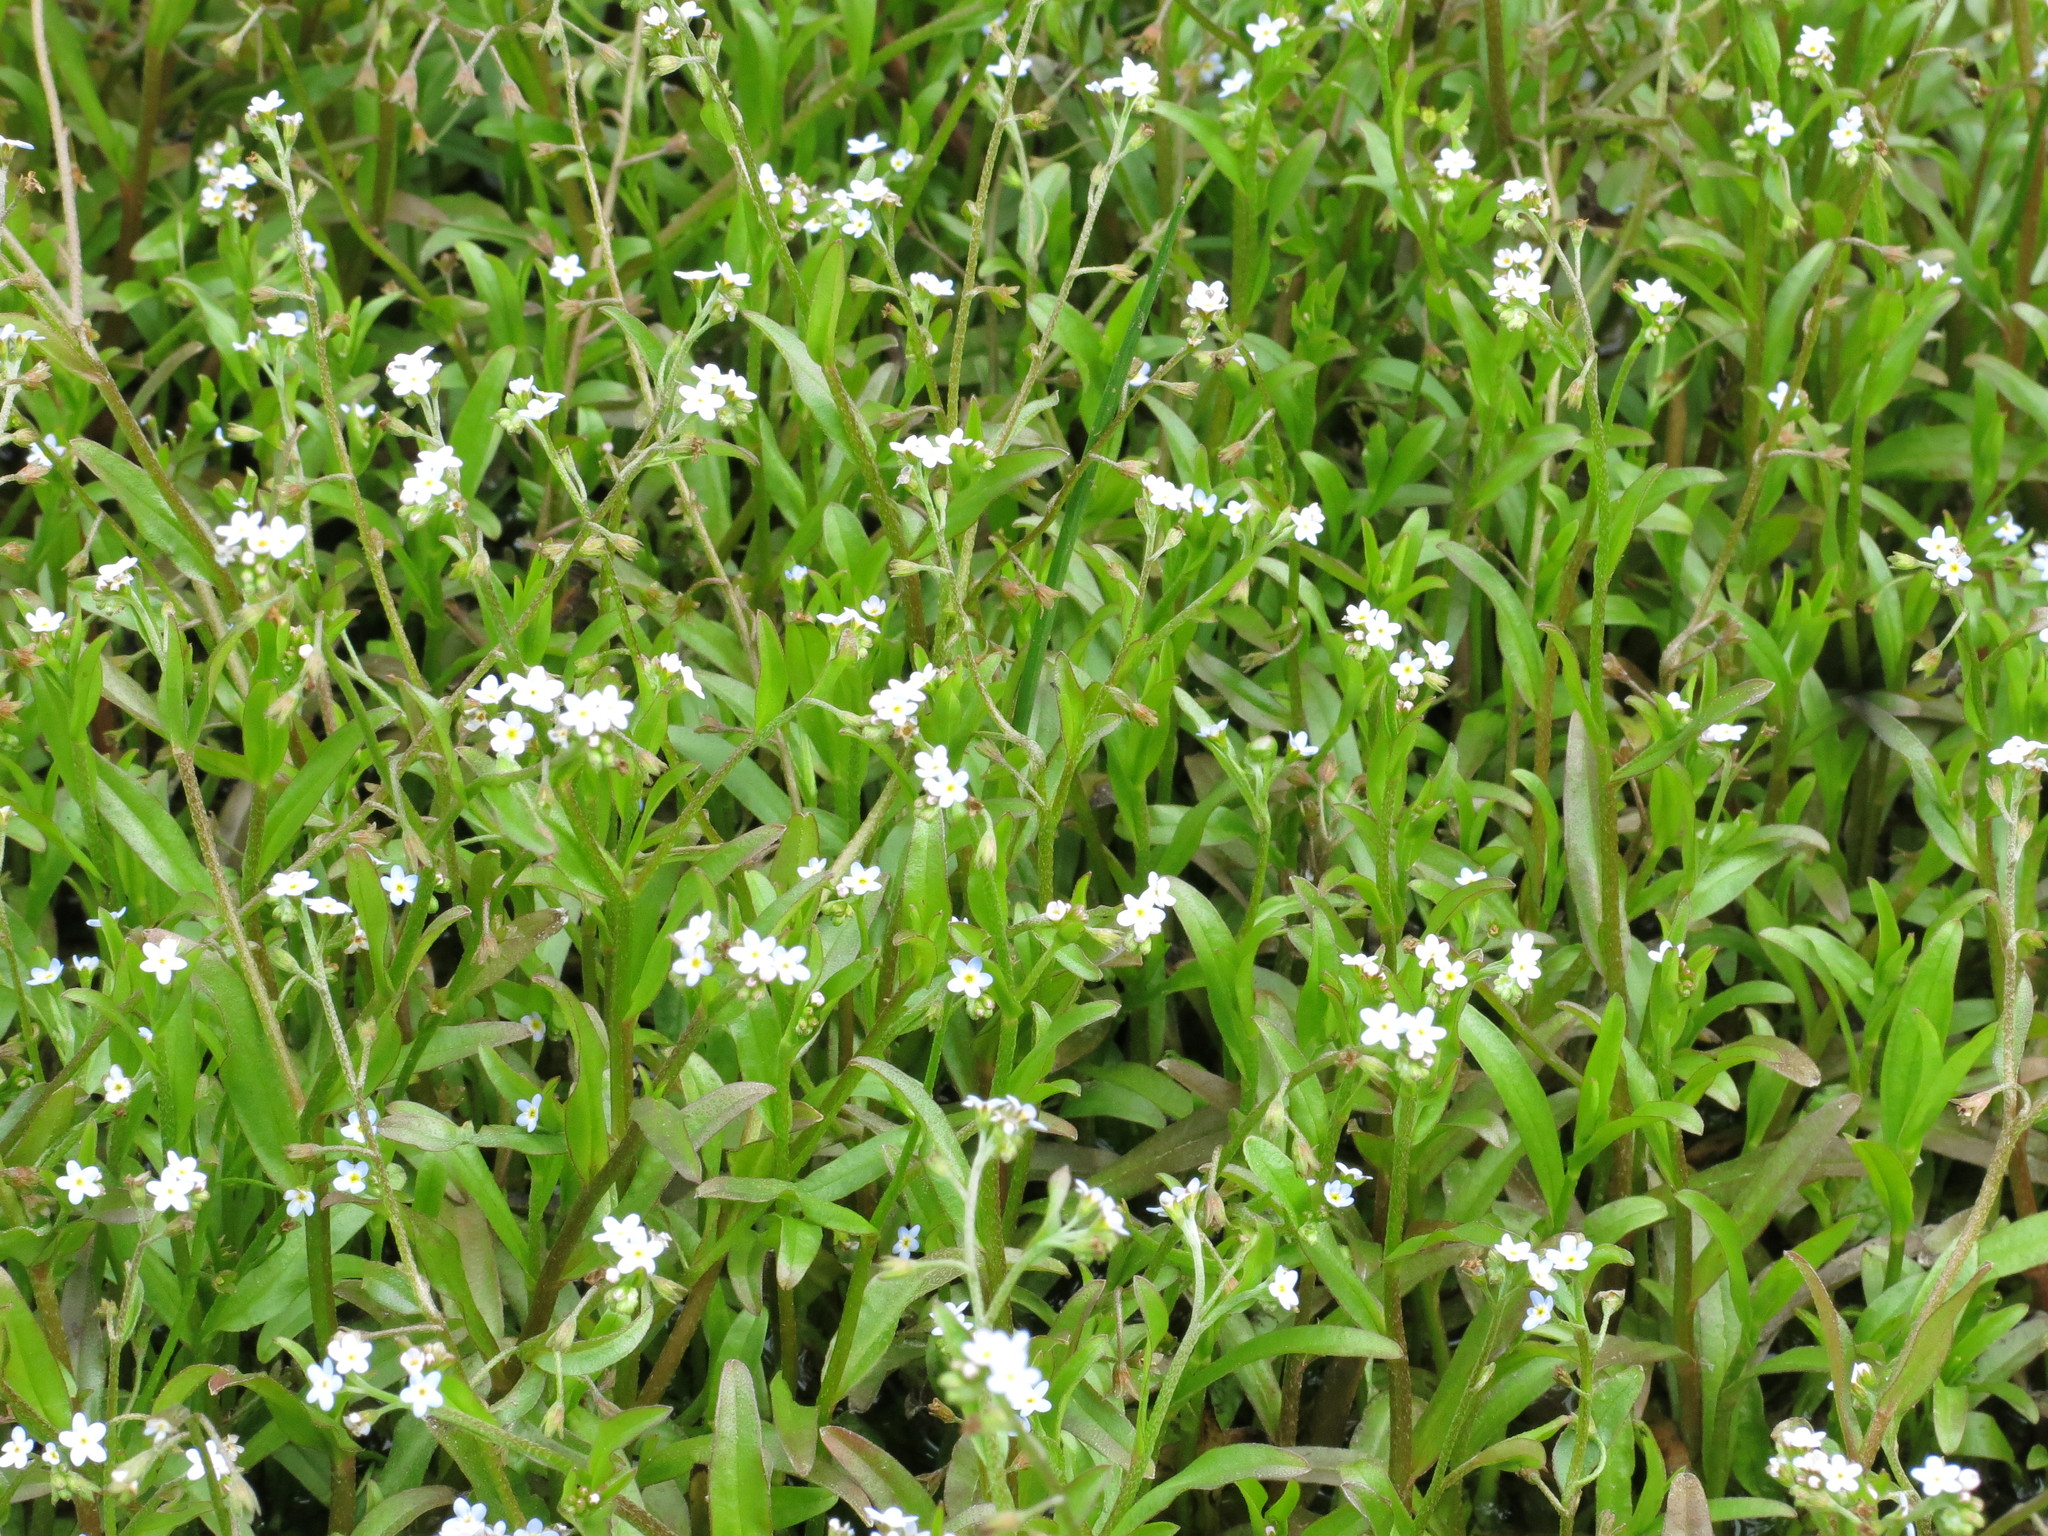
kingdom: Plantae
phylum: Tracheophyta
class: Magnoliopsida
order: Boraginales
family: Boraginaceae
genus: Myosotis
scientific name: Myosotis laxa
